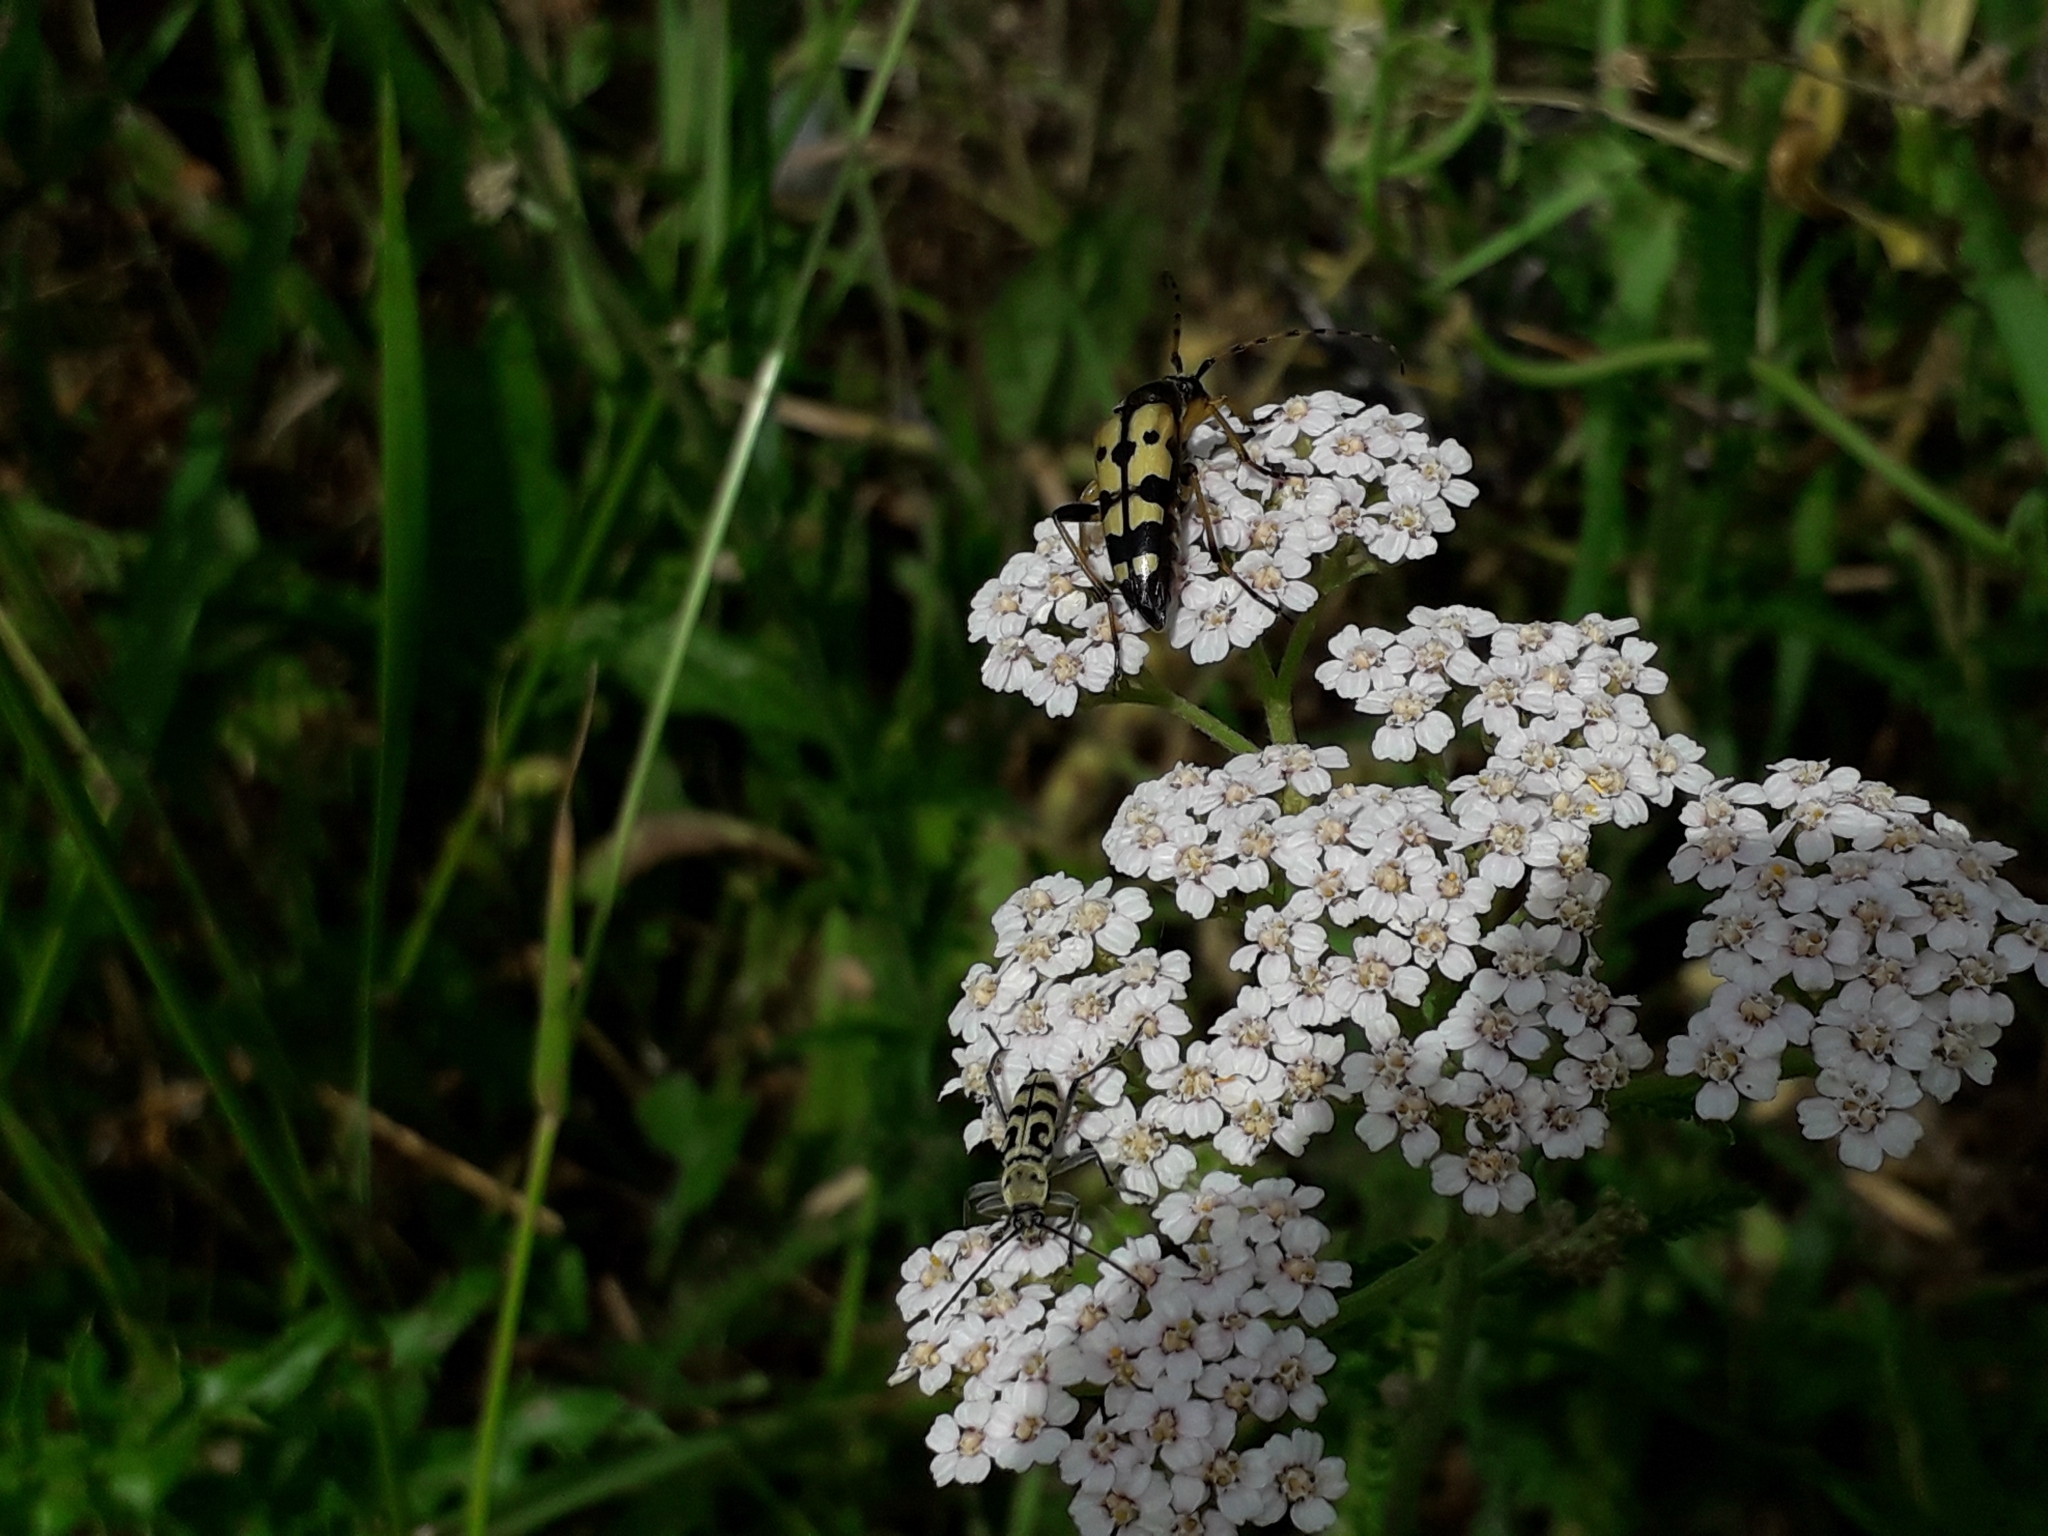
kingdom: Animalia
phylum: Arthropoda
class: Insecta
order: Coleoptera
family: Cerambycidae
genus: Chlorophorus
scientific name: Chlorophorus varius
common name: Grape wood borer
